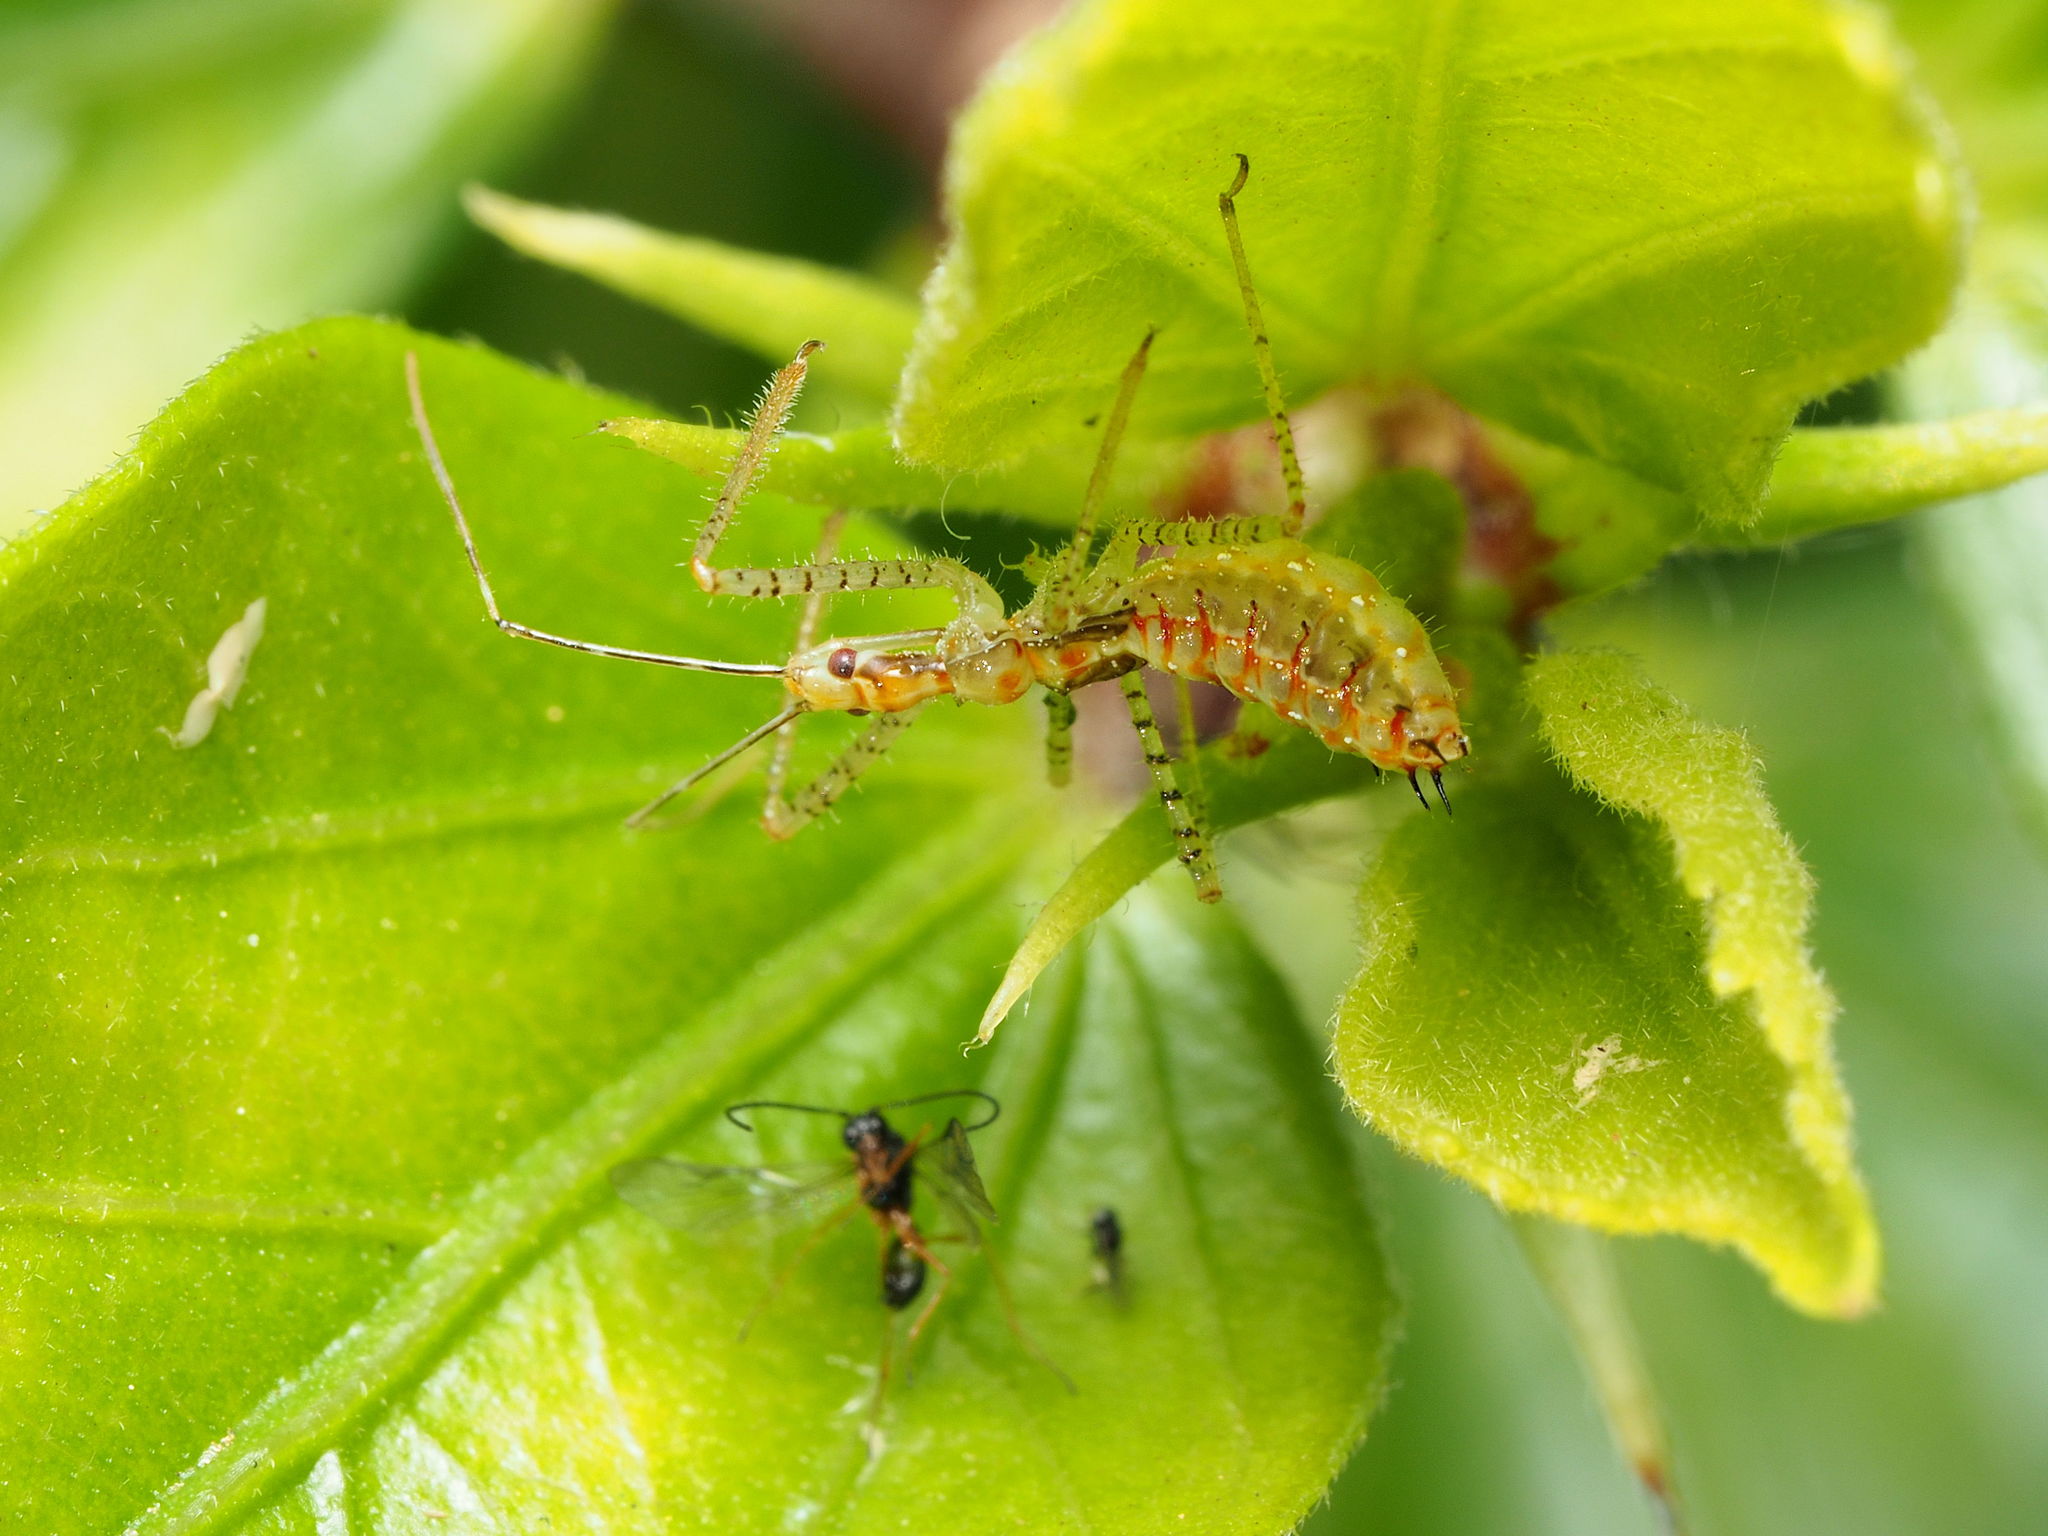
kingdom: Animalia
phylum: Arthropoda
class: Insecta
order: Hemiptera
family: Reduviidae
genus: Zelus
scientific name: Zelus renardii
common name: Assassin bug
